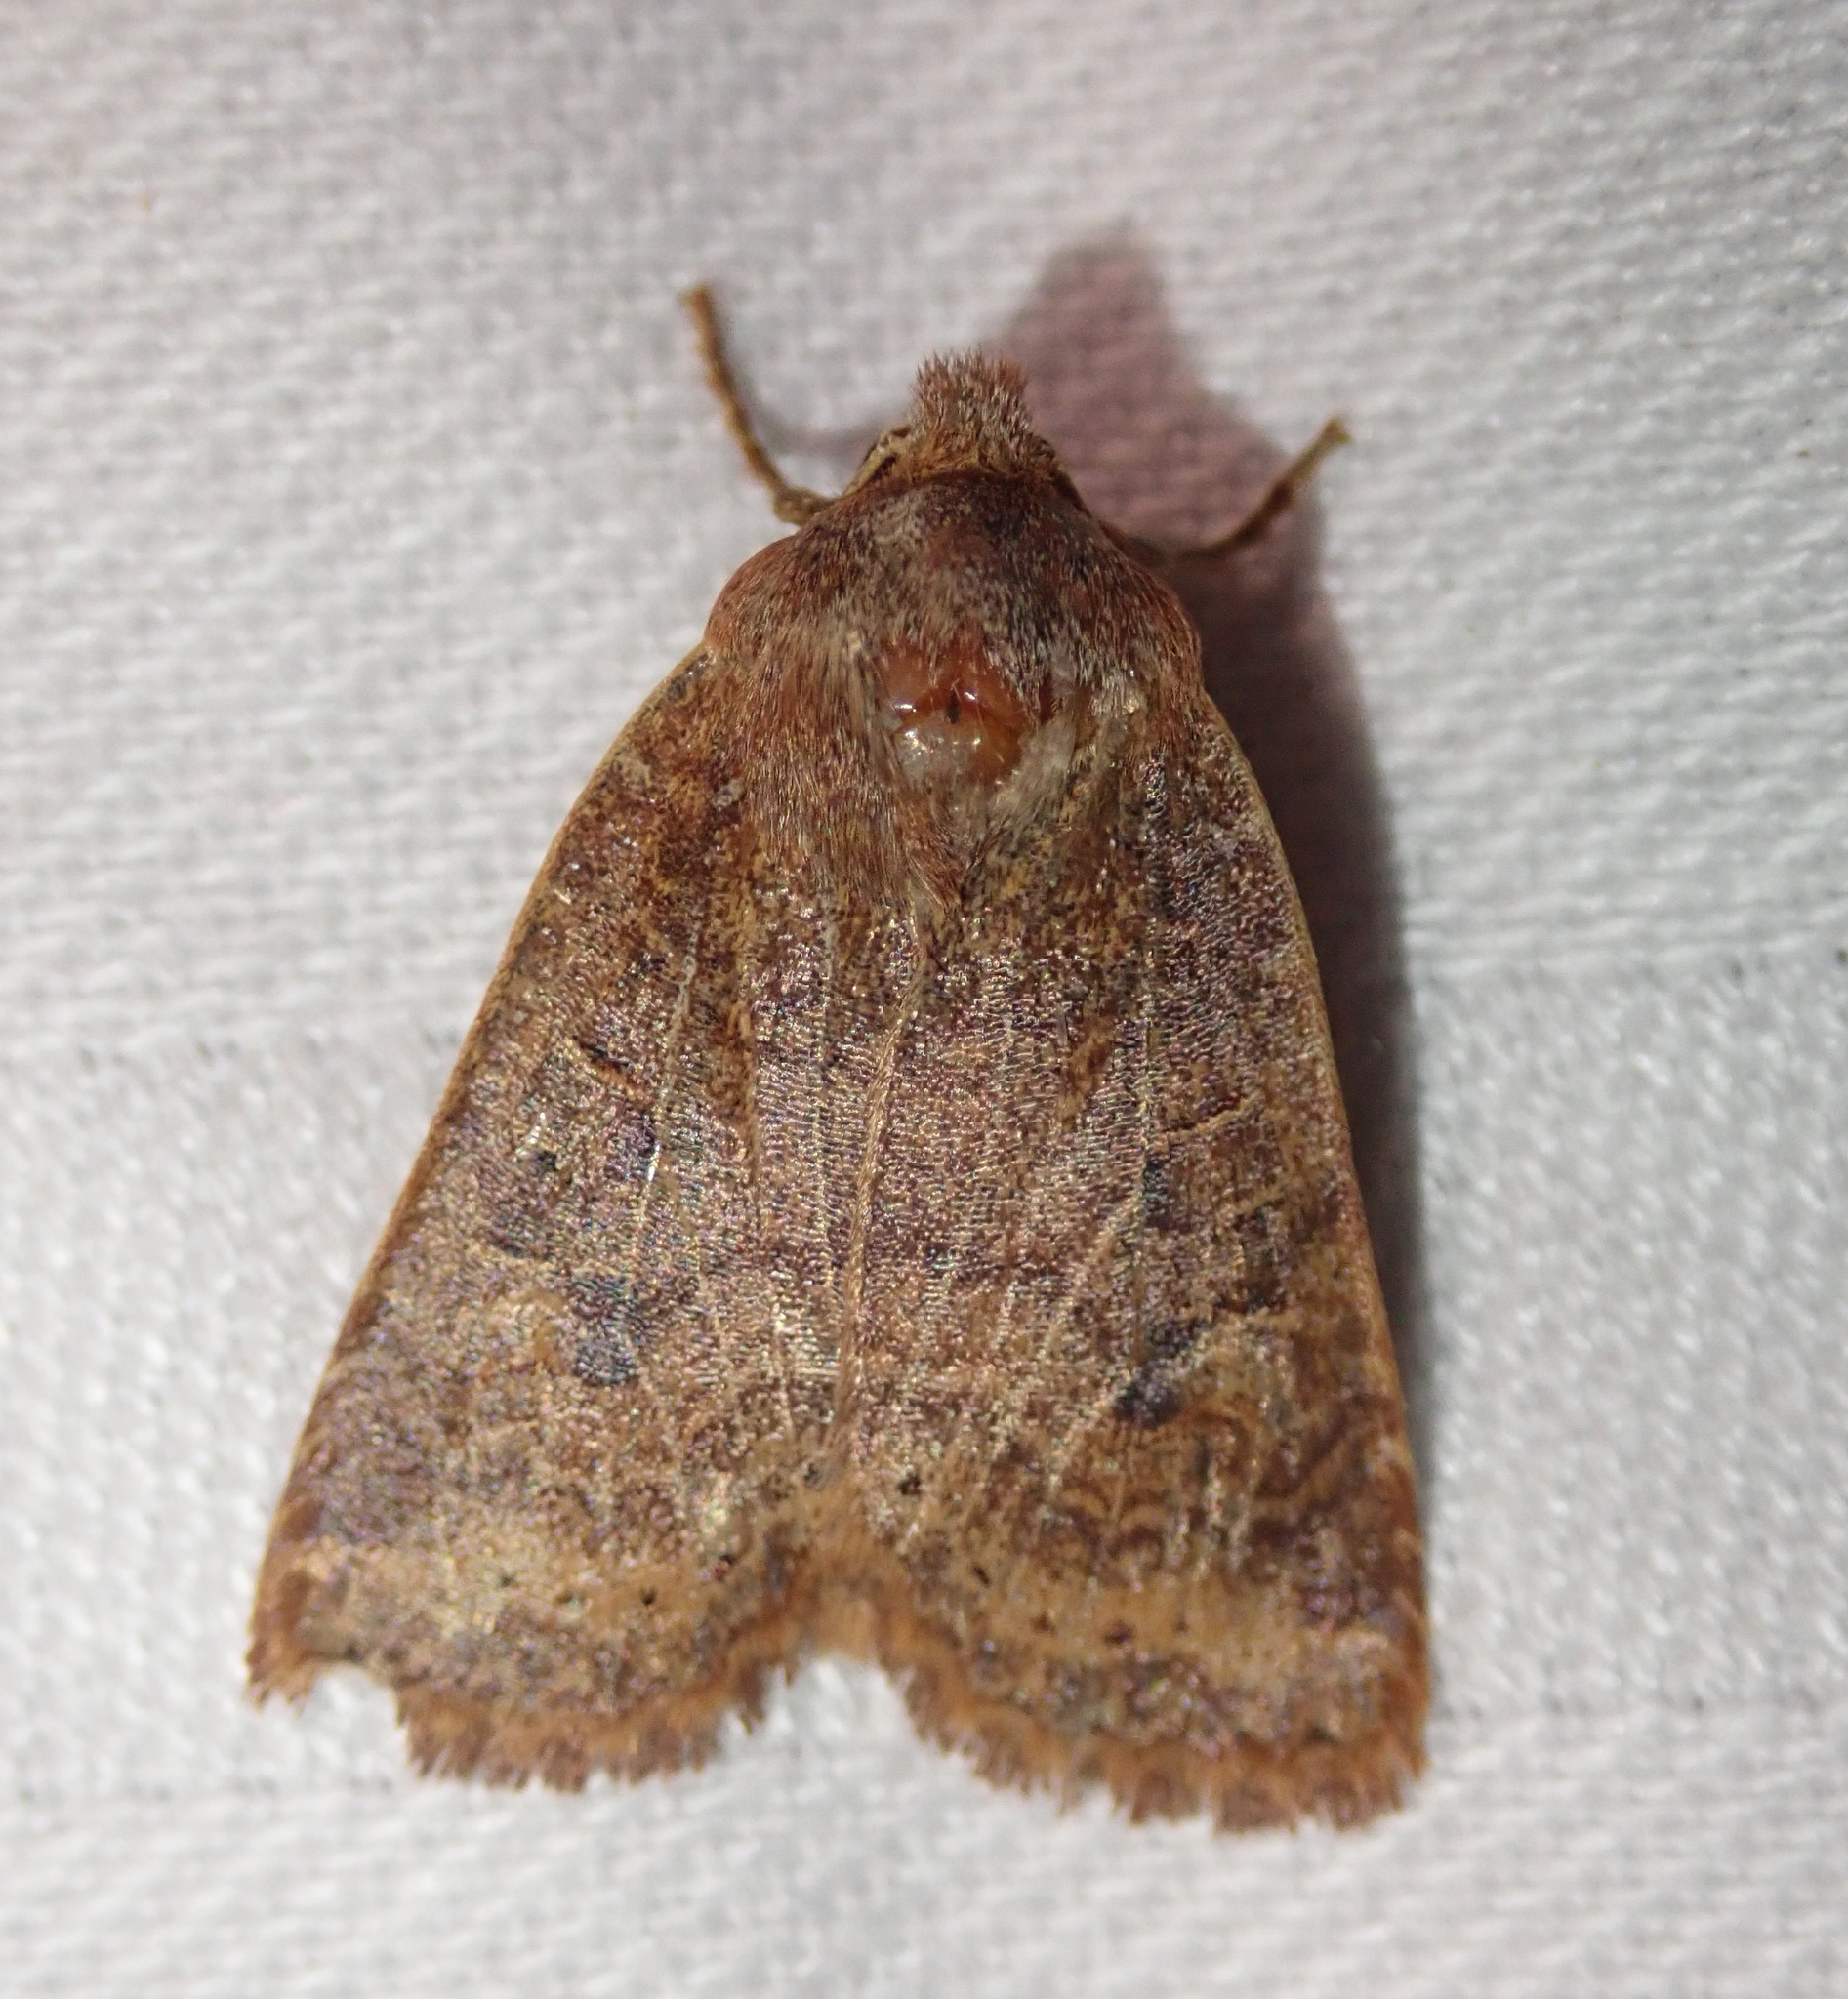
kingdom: Animalia
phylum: Arthropoda
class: Insecta
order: Lepidoptera
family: Noctuidae
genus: Conistra
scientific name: Conistra vaccinii
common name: Chestnut
